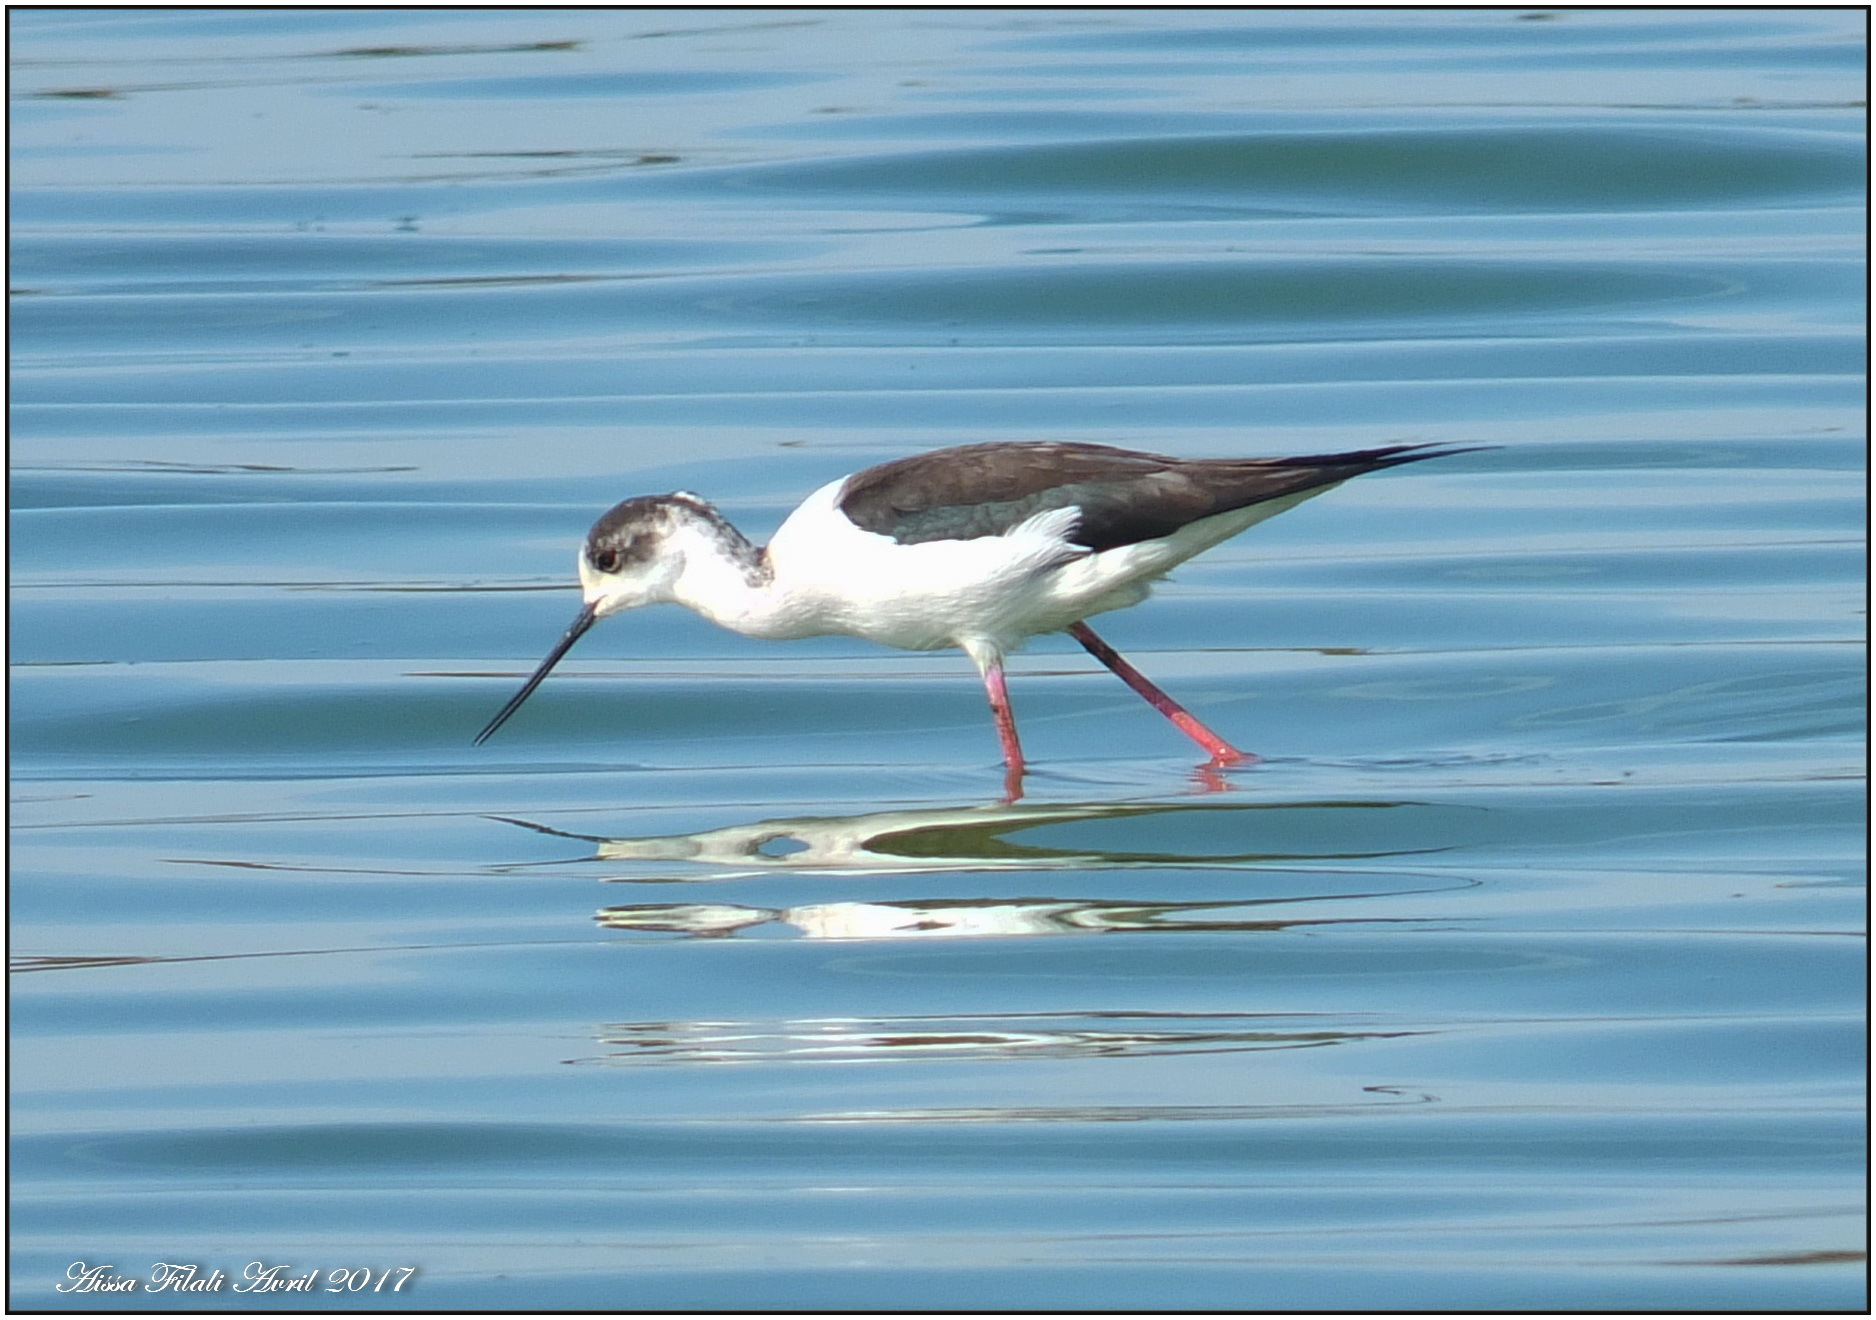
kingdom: Animalia
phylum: Chordata
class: Aves
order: Charadriiformes
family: Recurvirostridae
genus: Himantopus
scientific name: Himantopus himantopus
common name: Black-winged stilt
